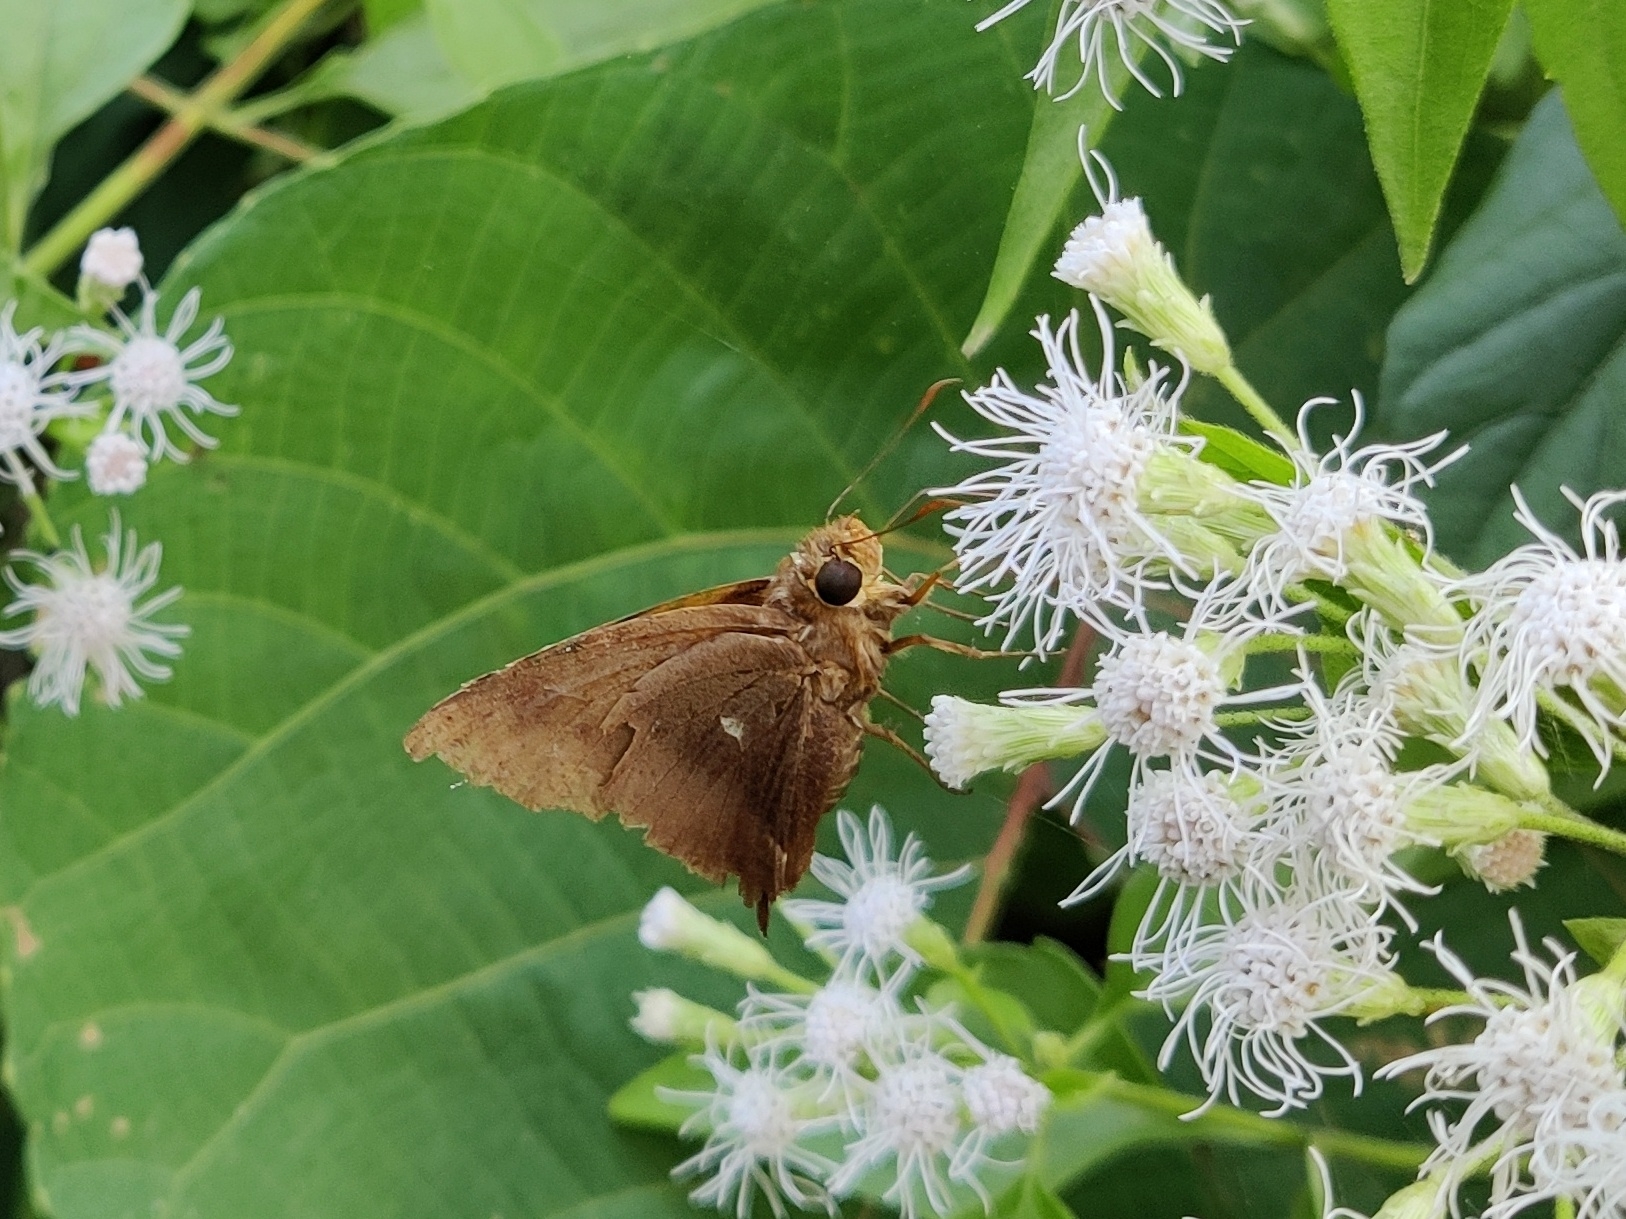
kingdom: Animalia
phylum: Arthropoda
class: Insecta
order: Lepidoptera
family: Hesperiidae
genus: Hasora
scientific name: Hasora badra
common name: Common awl
